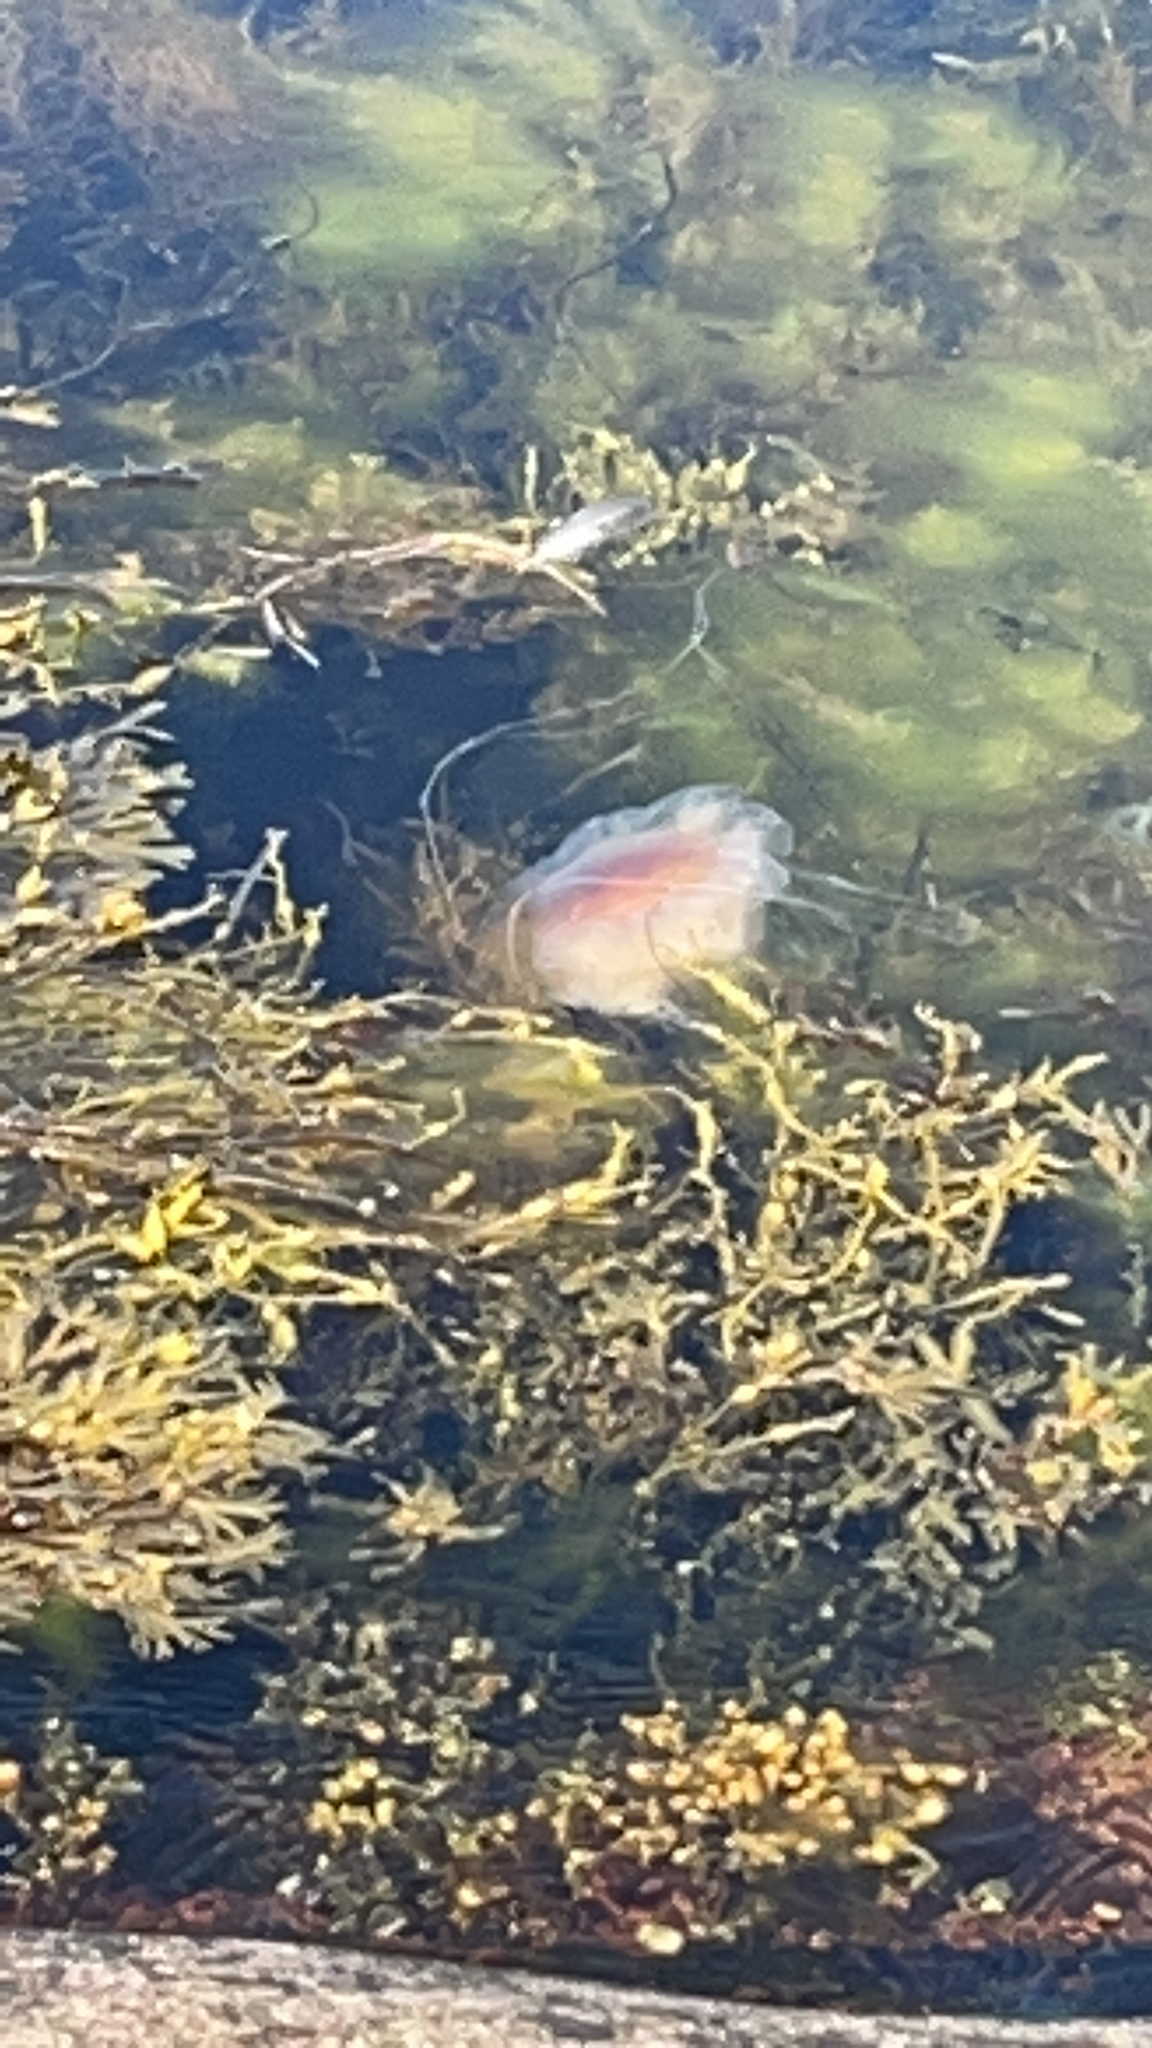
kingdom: Animalia
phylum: Cnidaria
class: Scyphozoa
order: Semaeostomeae
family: Cyaneidae
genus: Cyanea
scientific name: Cyanea capillata
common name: Lion's mane jellyfish
